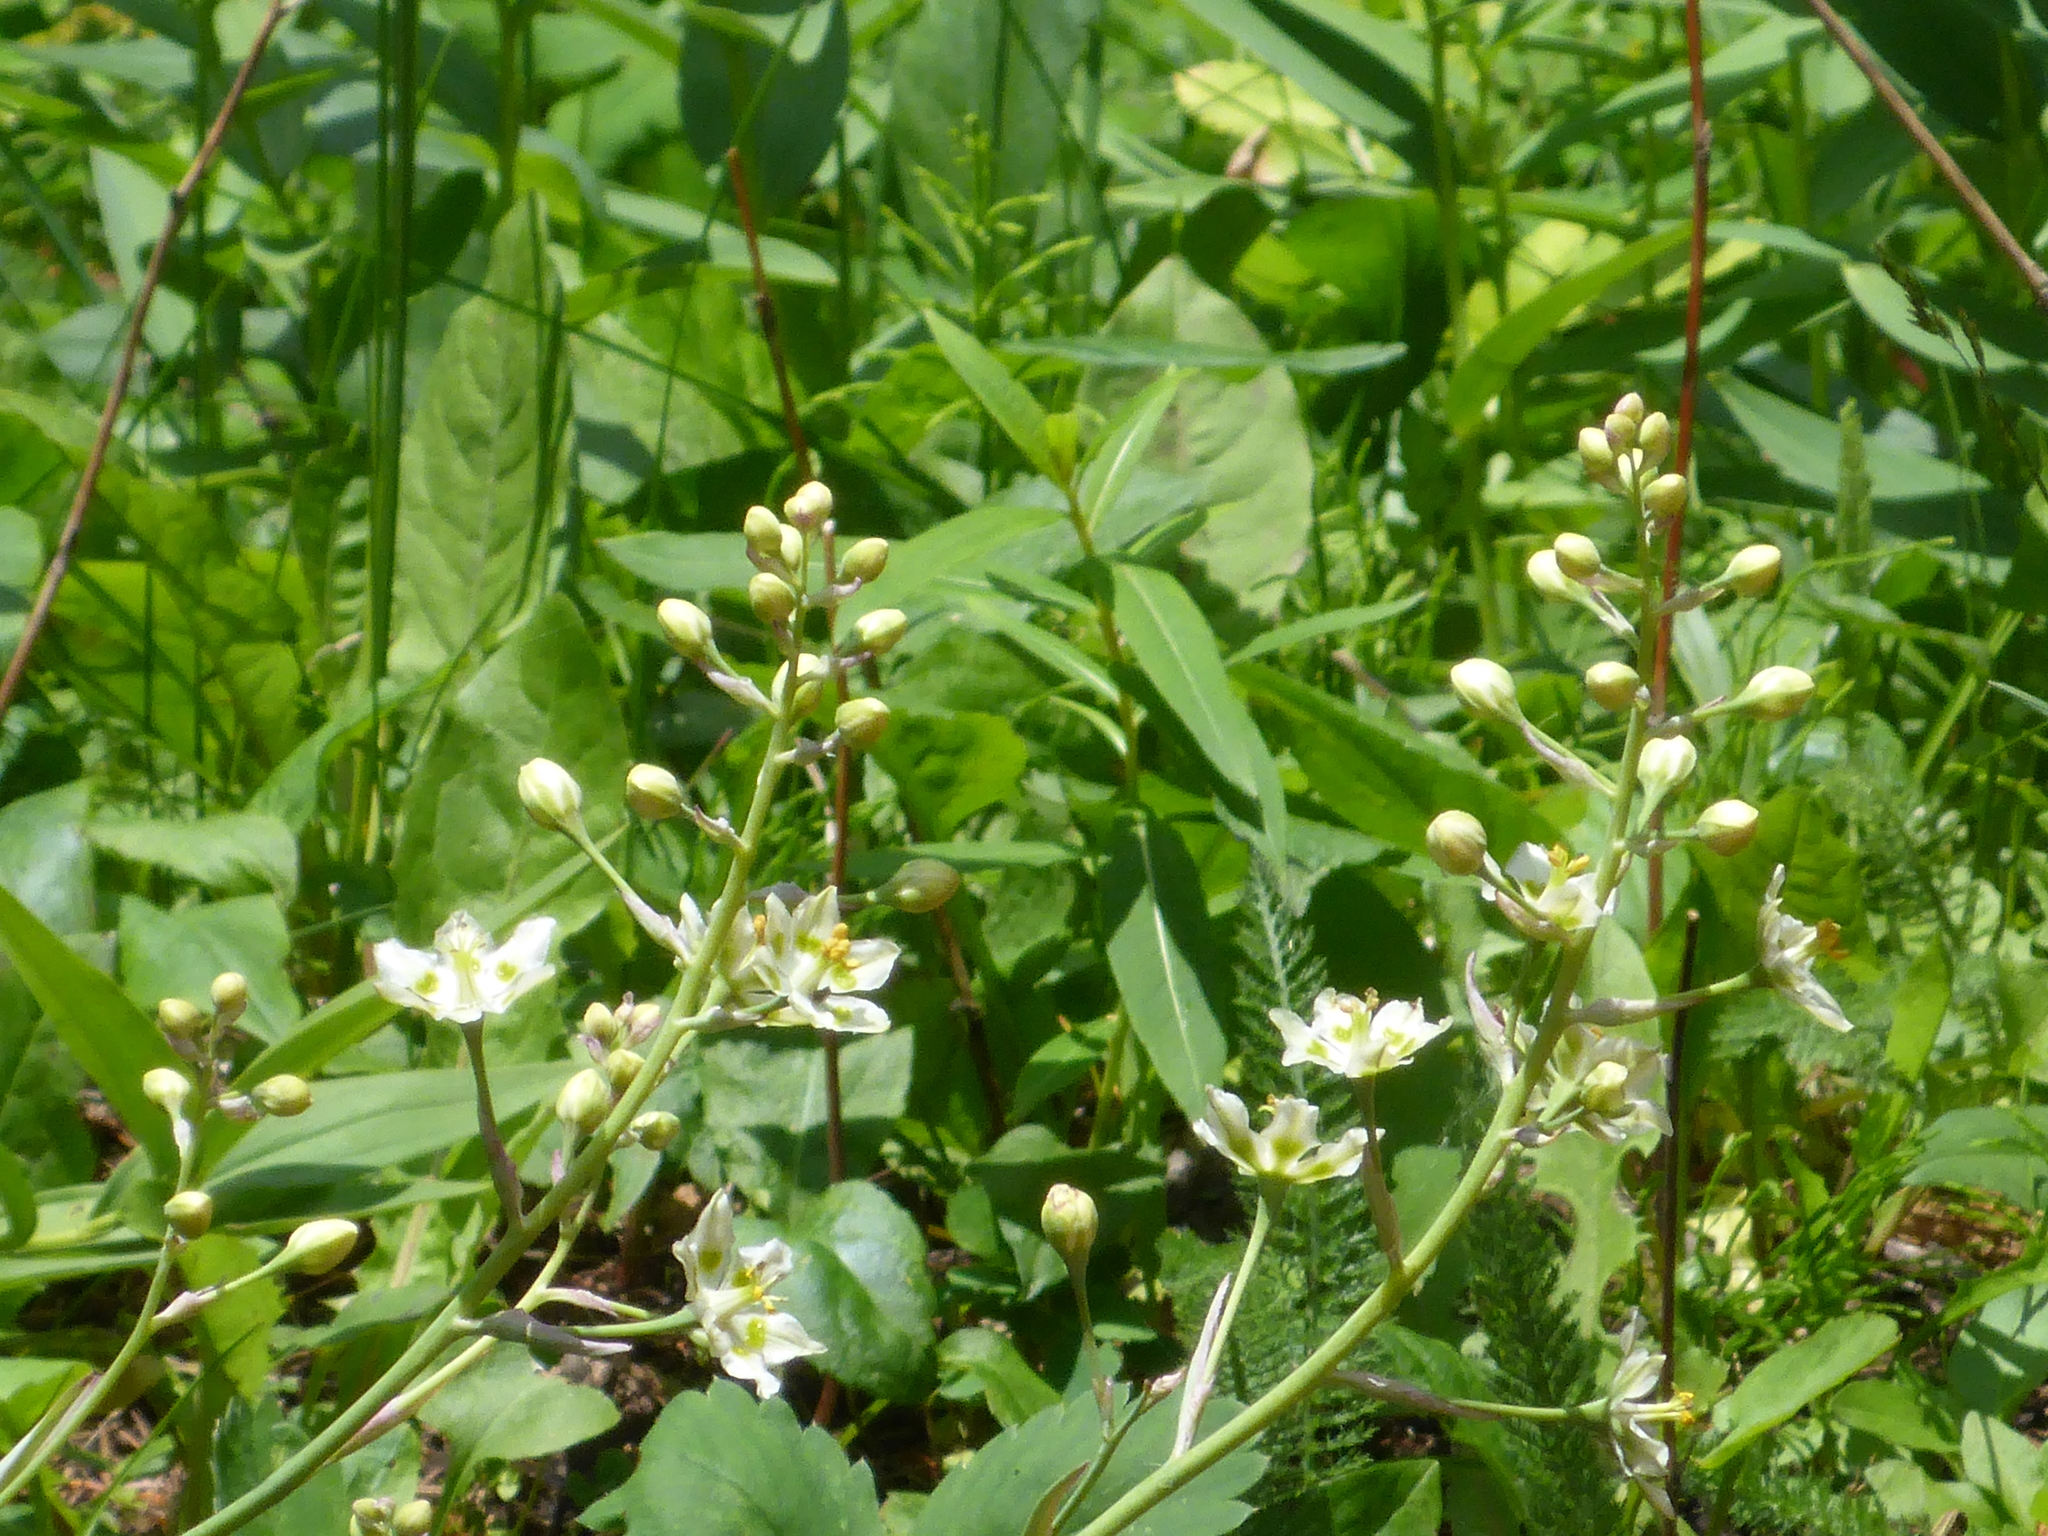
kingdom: Plantae
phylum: Tracheophyta
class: Liliopsida
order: Liliales
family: Melanthiaceae
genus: Anticlea
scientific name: Anticlea elegans
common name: Mountain death camas
